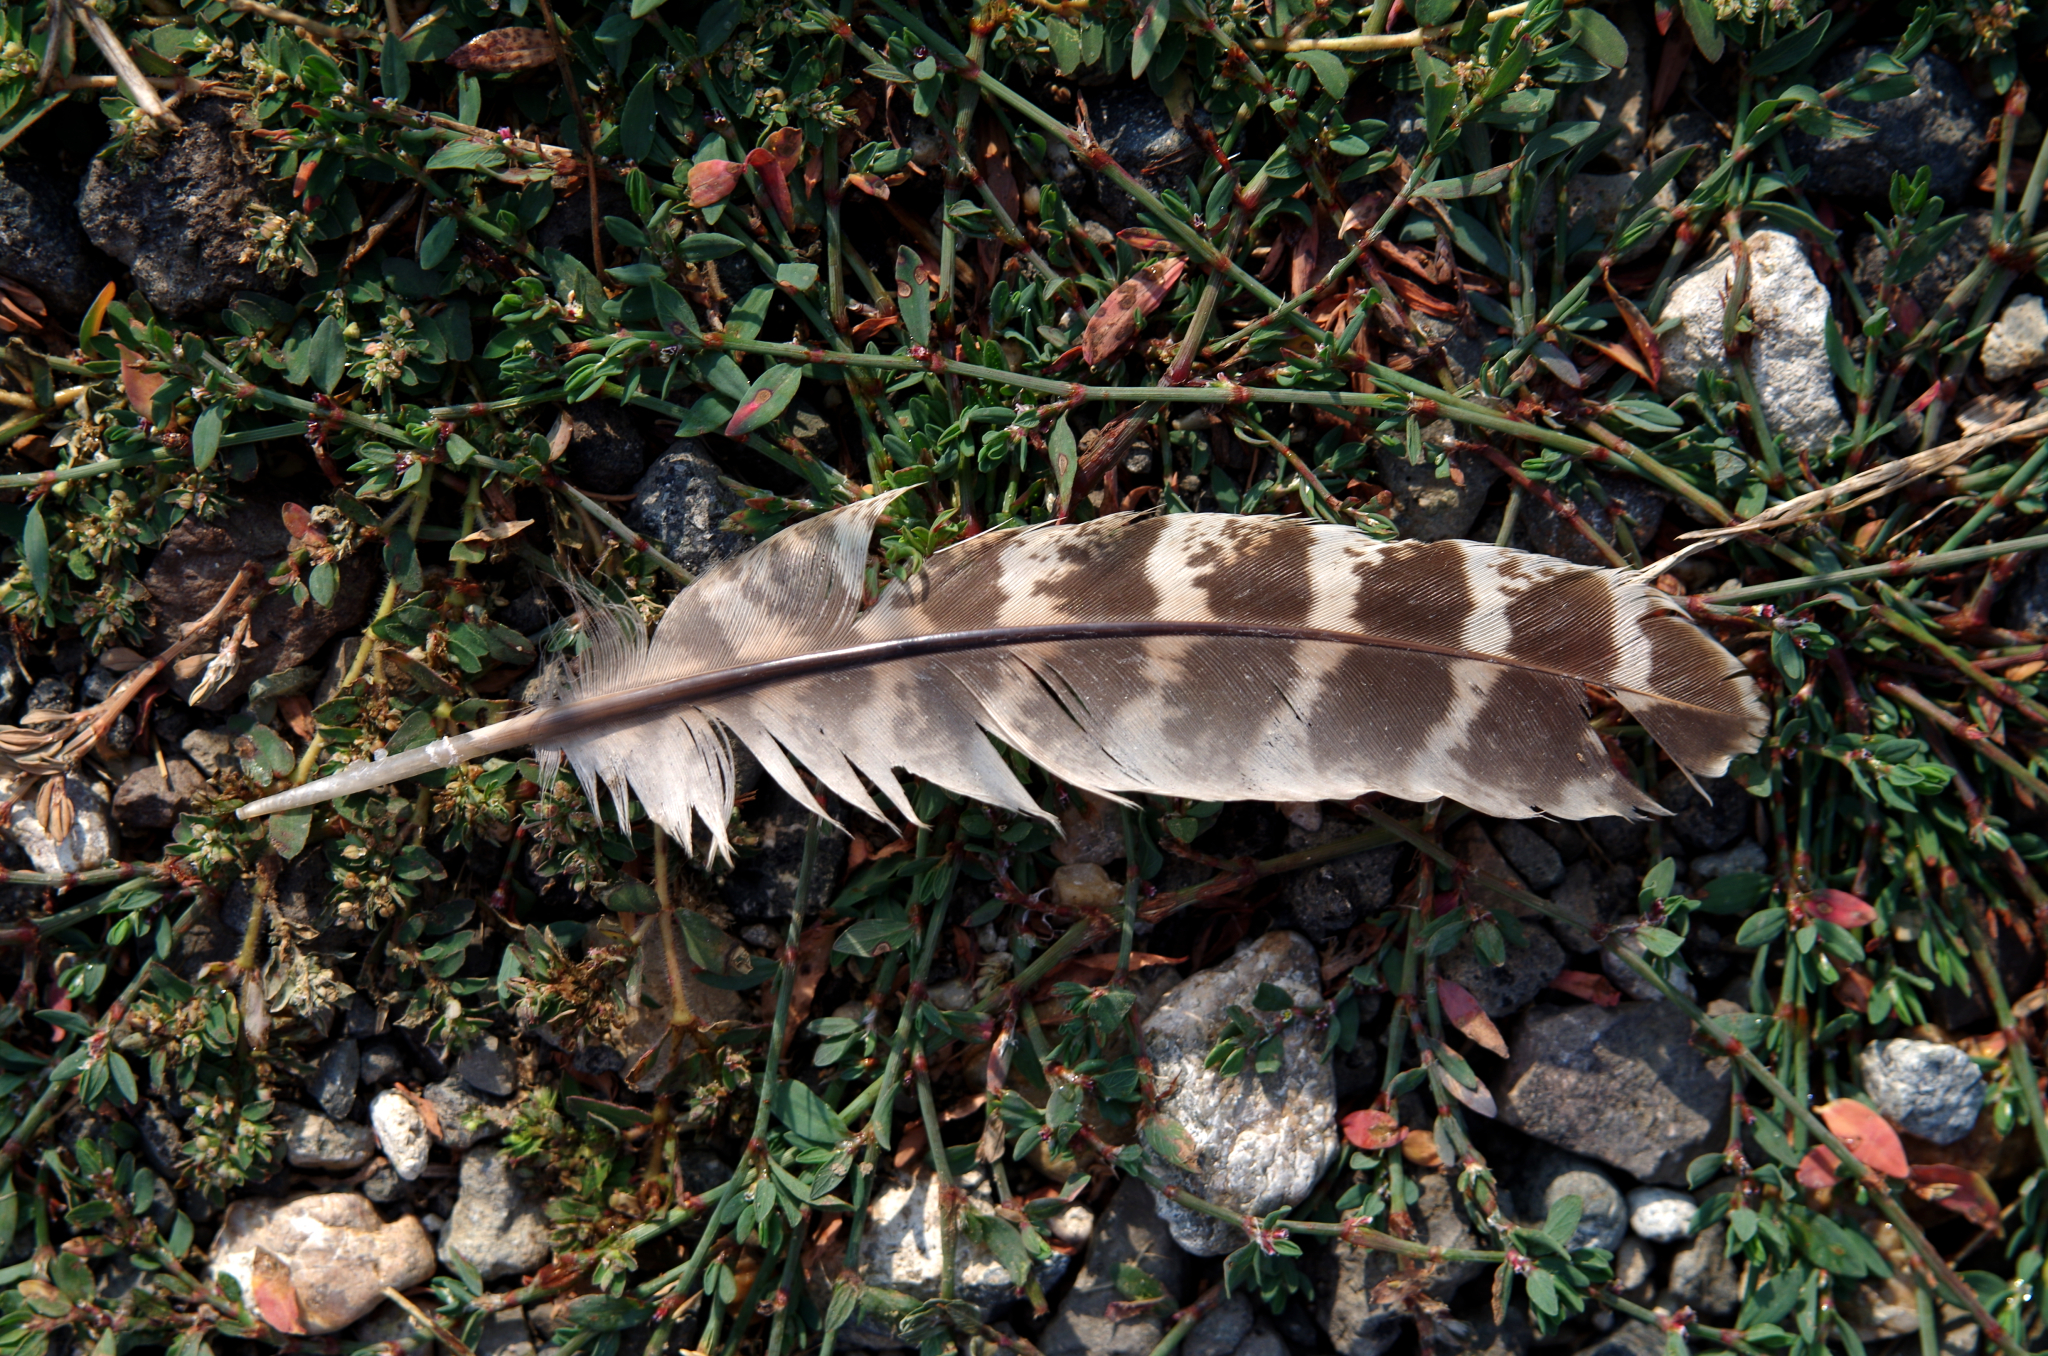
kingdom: Animalia
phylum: Chordata
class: Aves
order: Galliformes
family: Phasianidae
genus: Phasianus
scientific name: Phasianus colchicus
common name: Common pheasant
